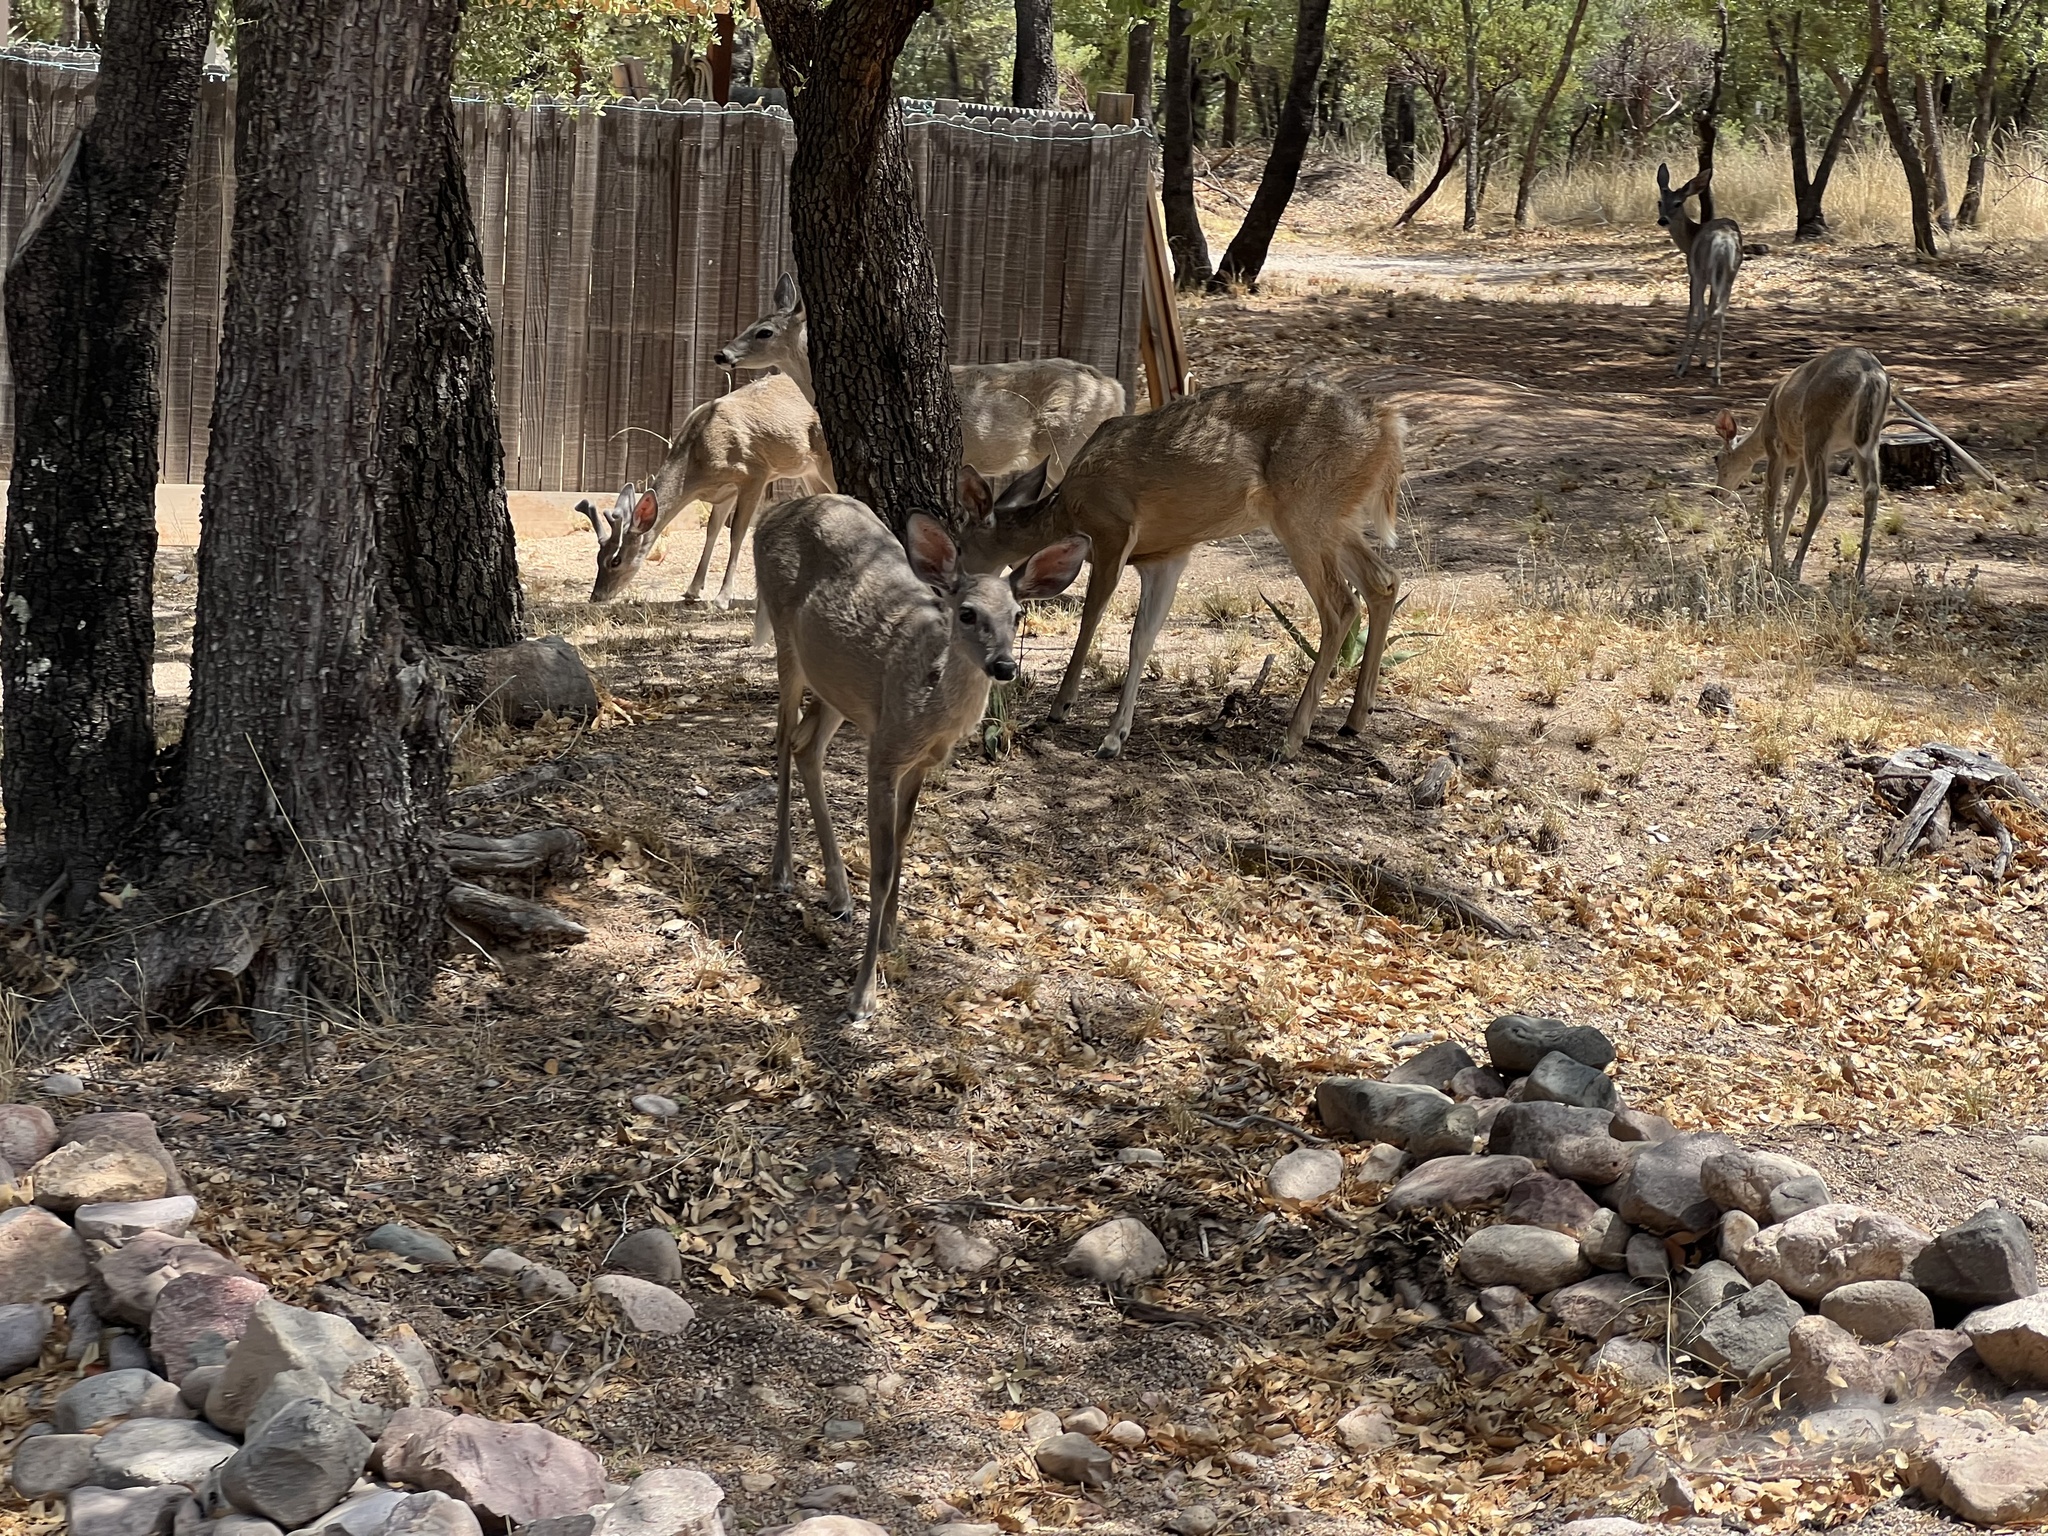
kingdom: Animalia
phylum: Chordata
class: Mammalia
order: Artiodactyla
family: Cervidae
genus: Odocoileus
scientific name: Odocoileus virginianus
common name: White-tailed deer
